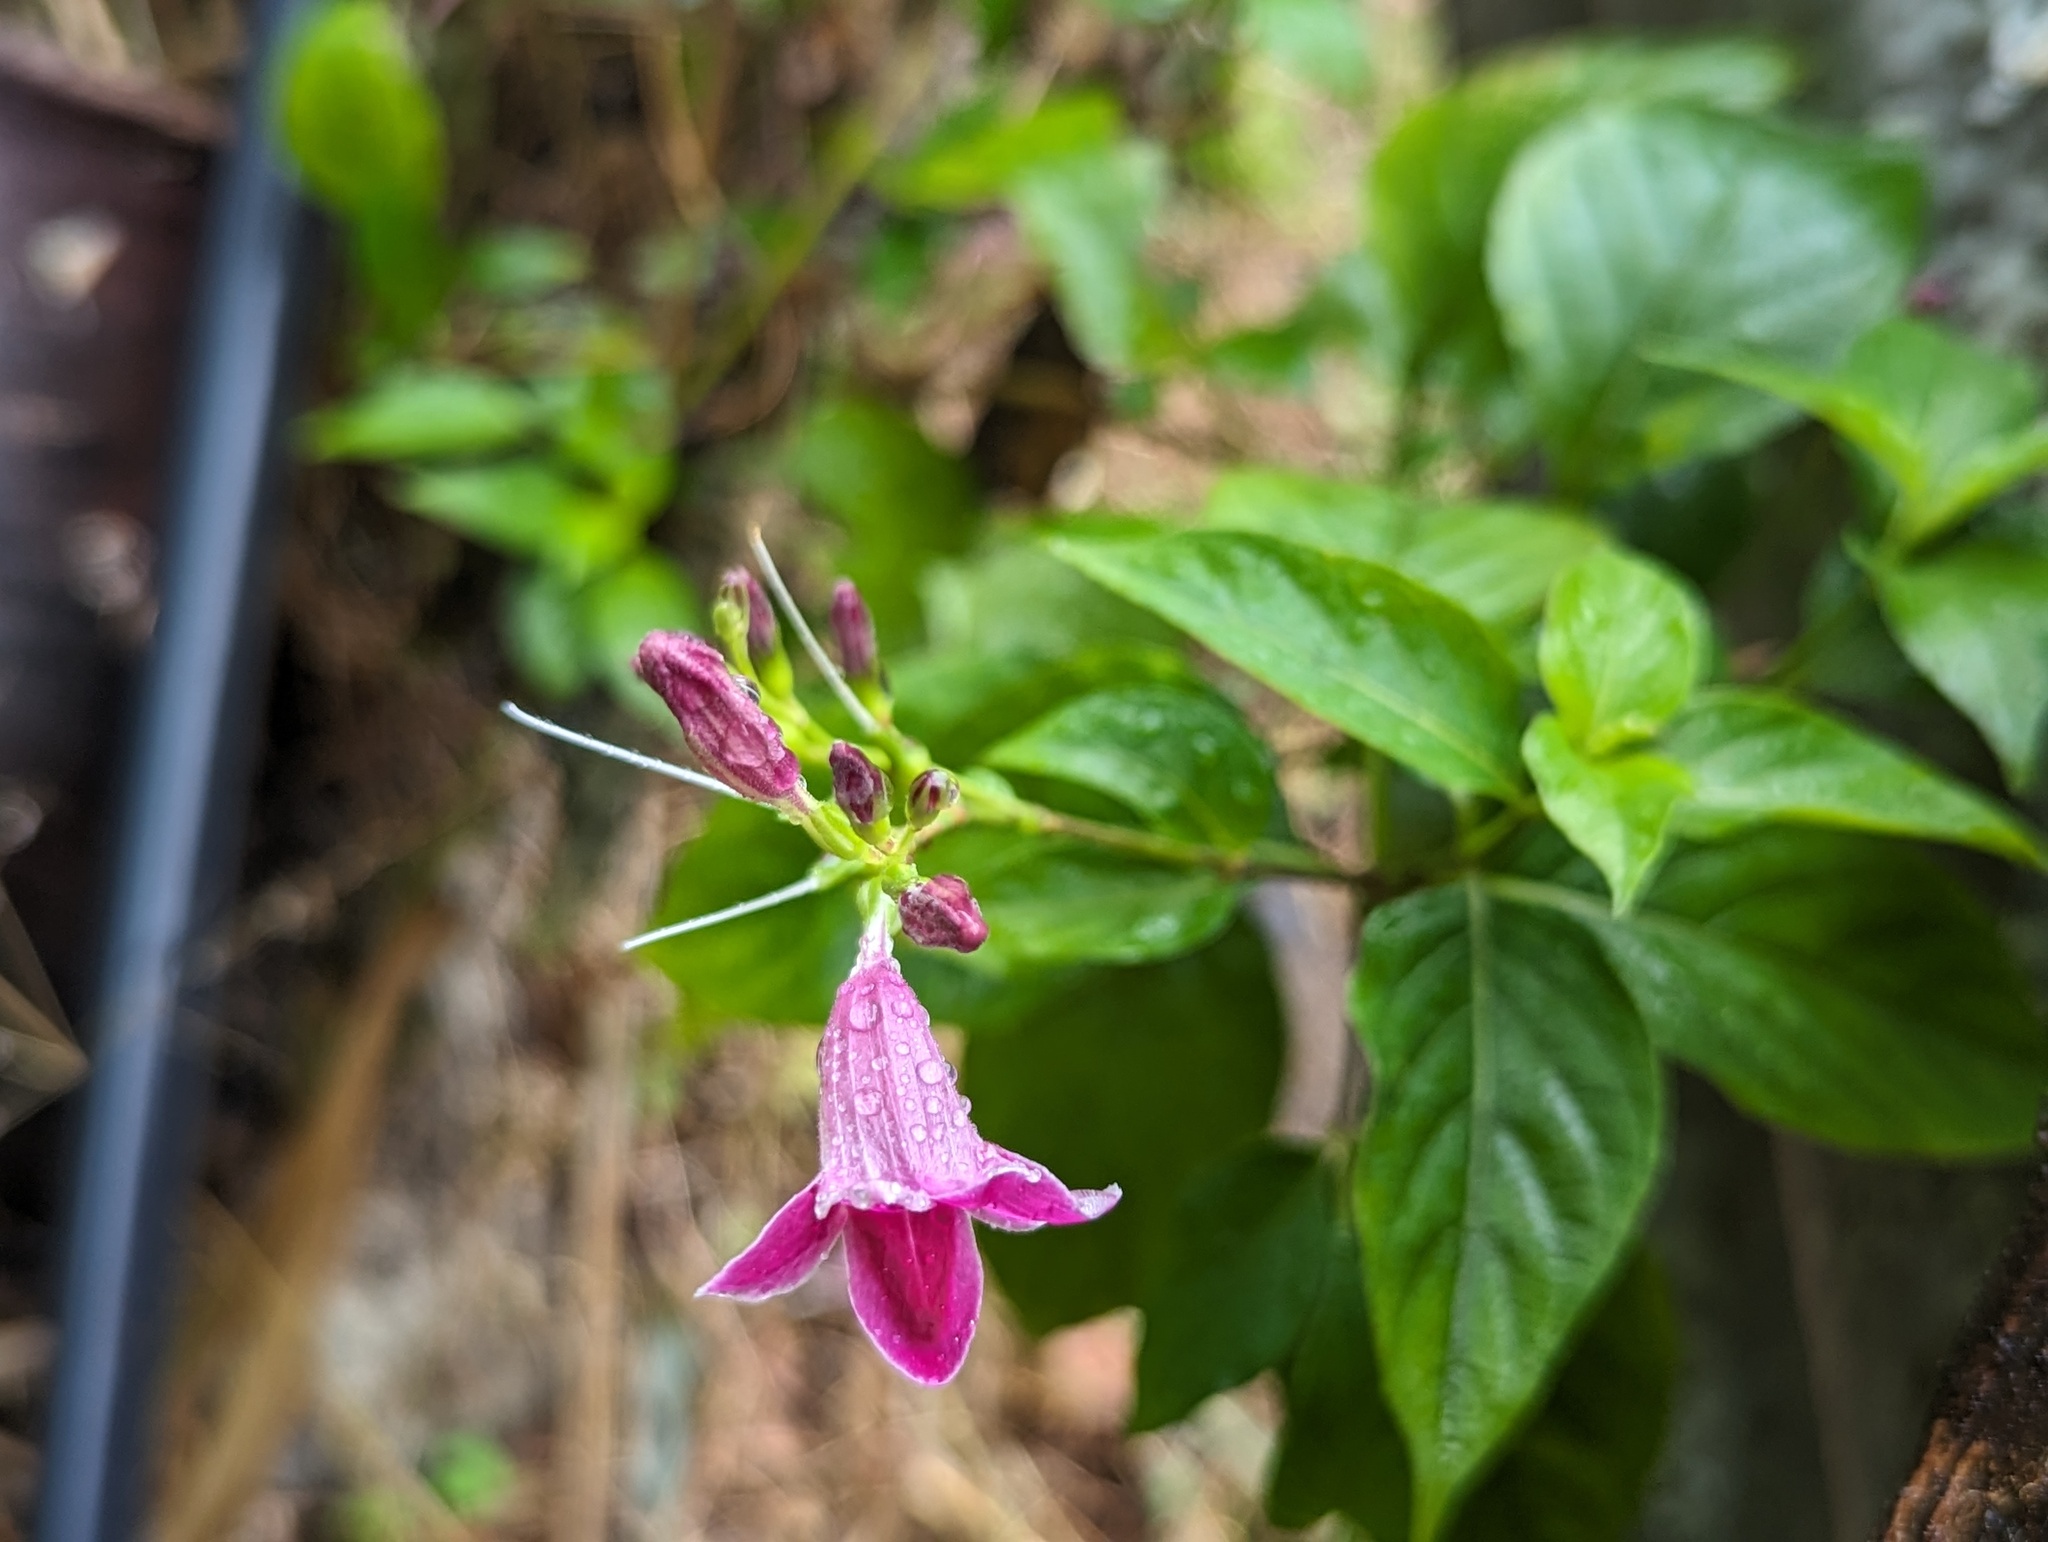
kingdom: Plantae
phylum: Tracheophyta
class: Magnoliopsida
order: Lamiales
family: Acanthaceae
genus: Asystasia
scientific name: Asystasia nemorum
